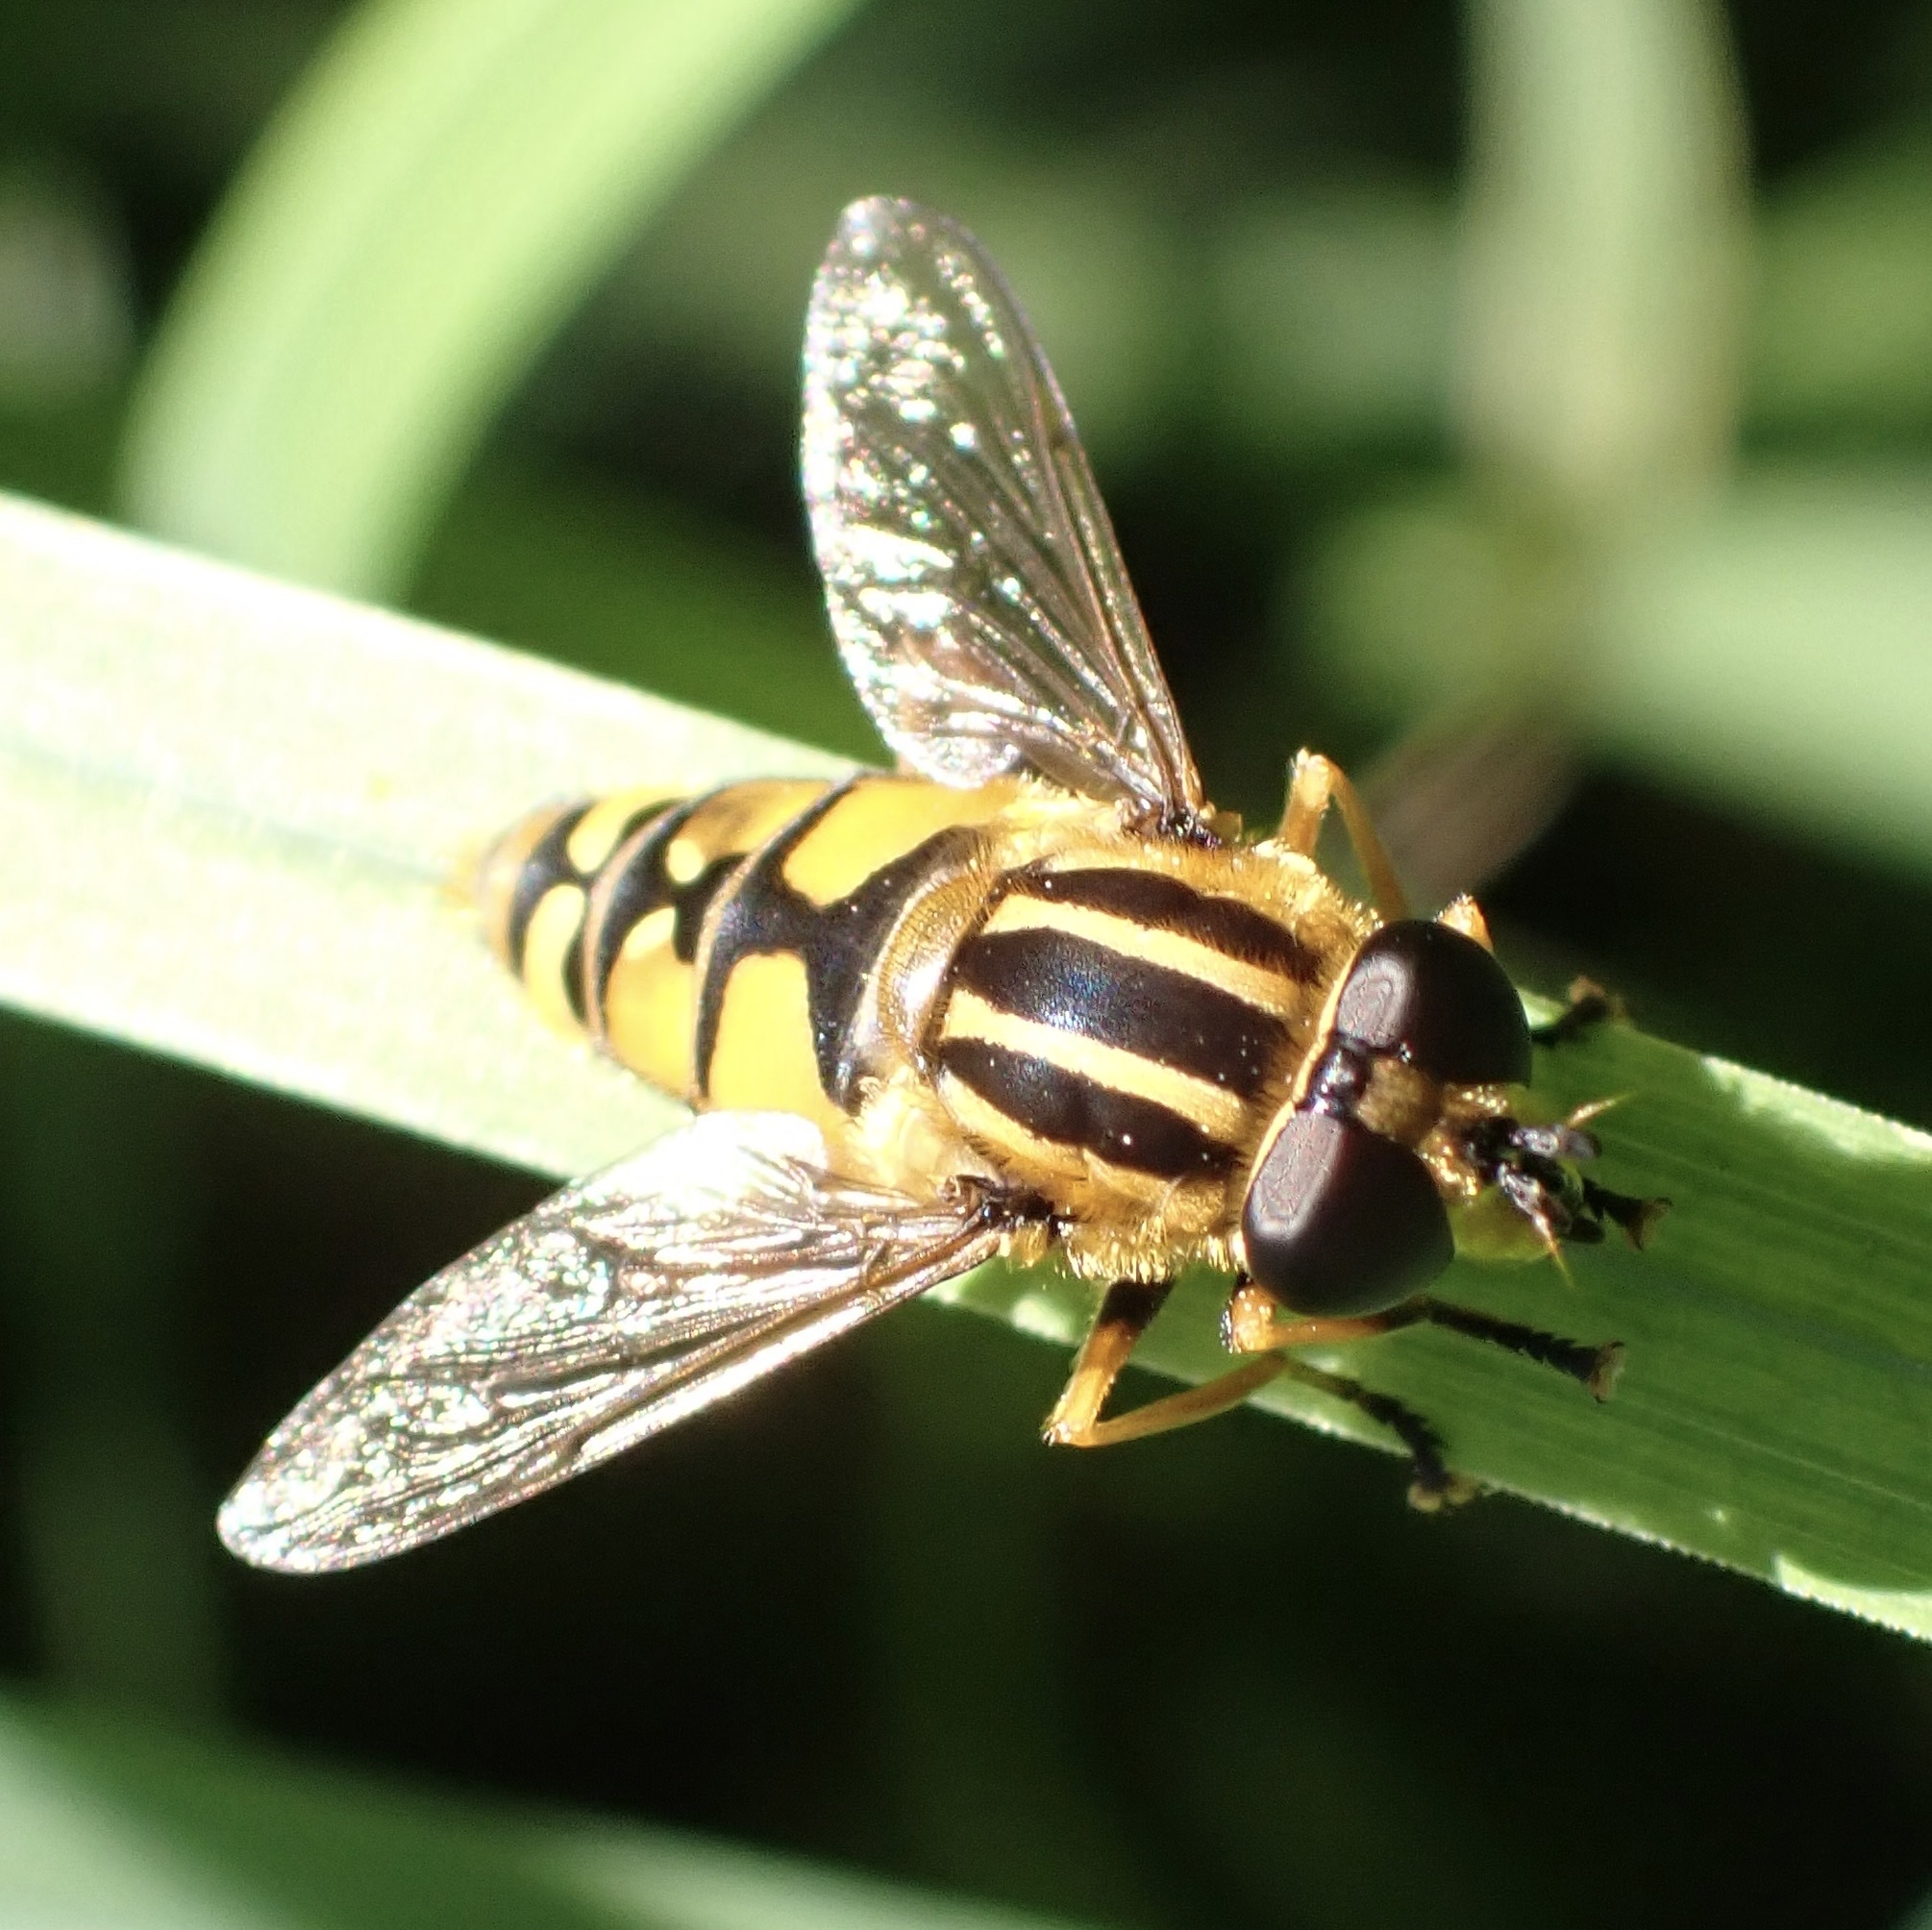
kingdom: Animalia
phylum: Arthropoda
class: Insecta
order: Diptera
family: Syrphidae
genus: Helophilus
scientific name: Helophilus pendulus
